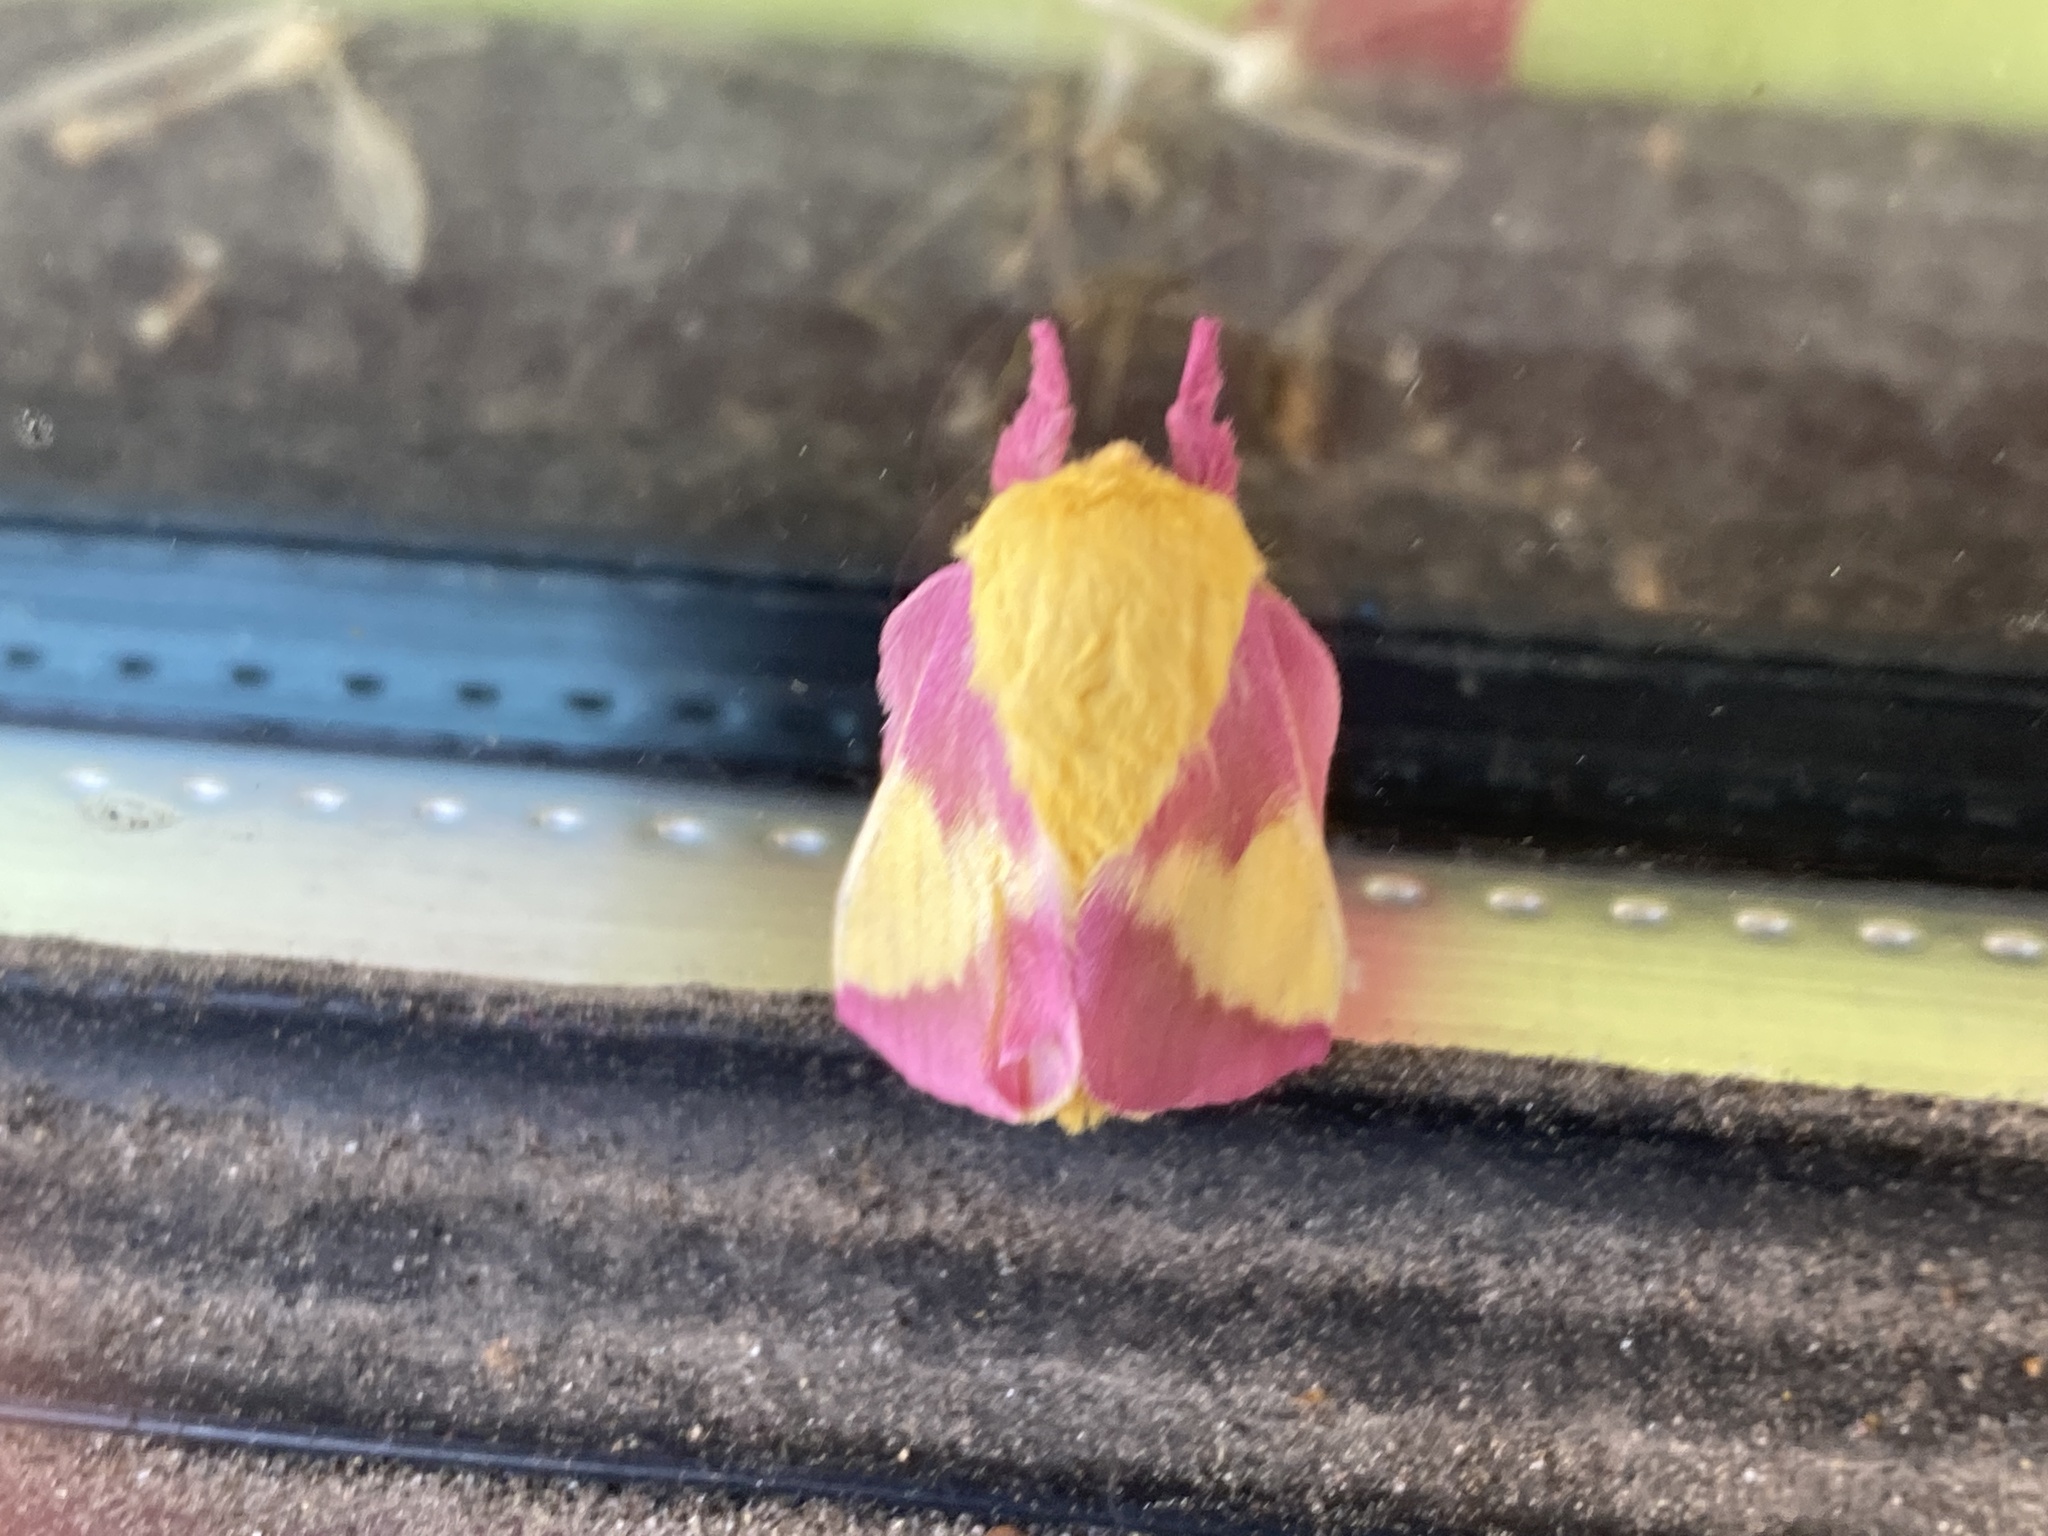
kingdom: Animalia
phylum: Arthropoda
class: Insecta
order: Lepidoptera
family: Saturniidae
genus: Dryocampa
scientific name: Dryocampa rubicunda
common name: Rosy maple moth
